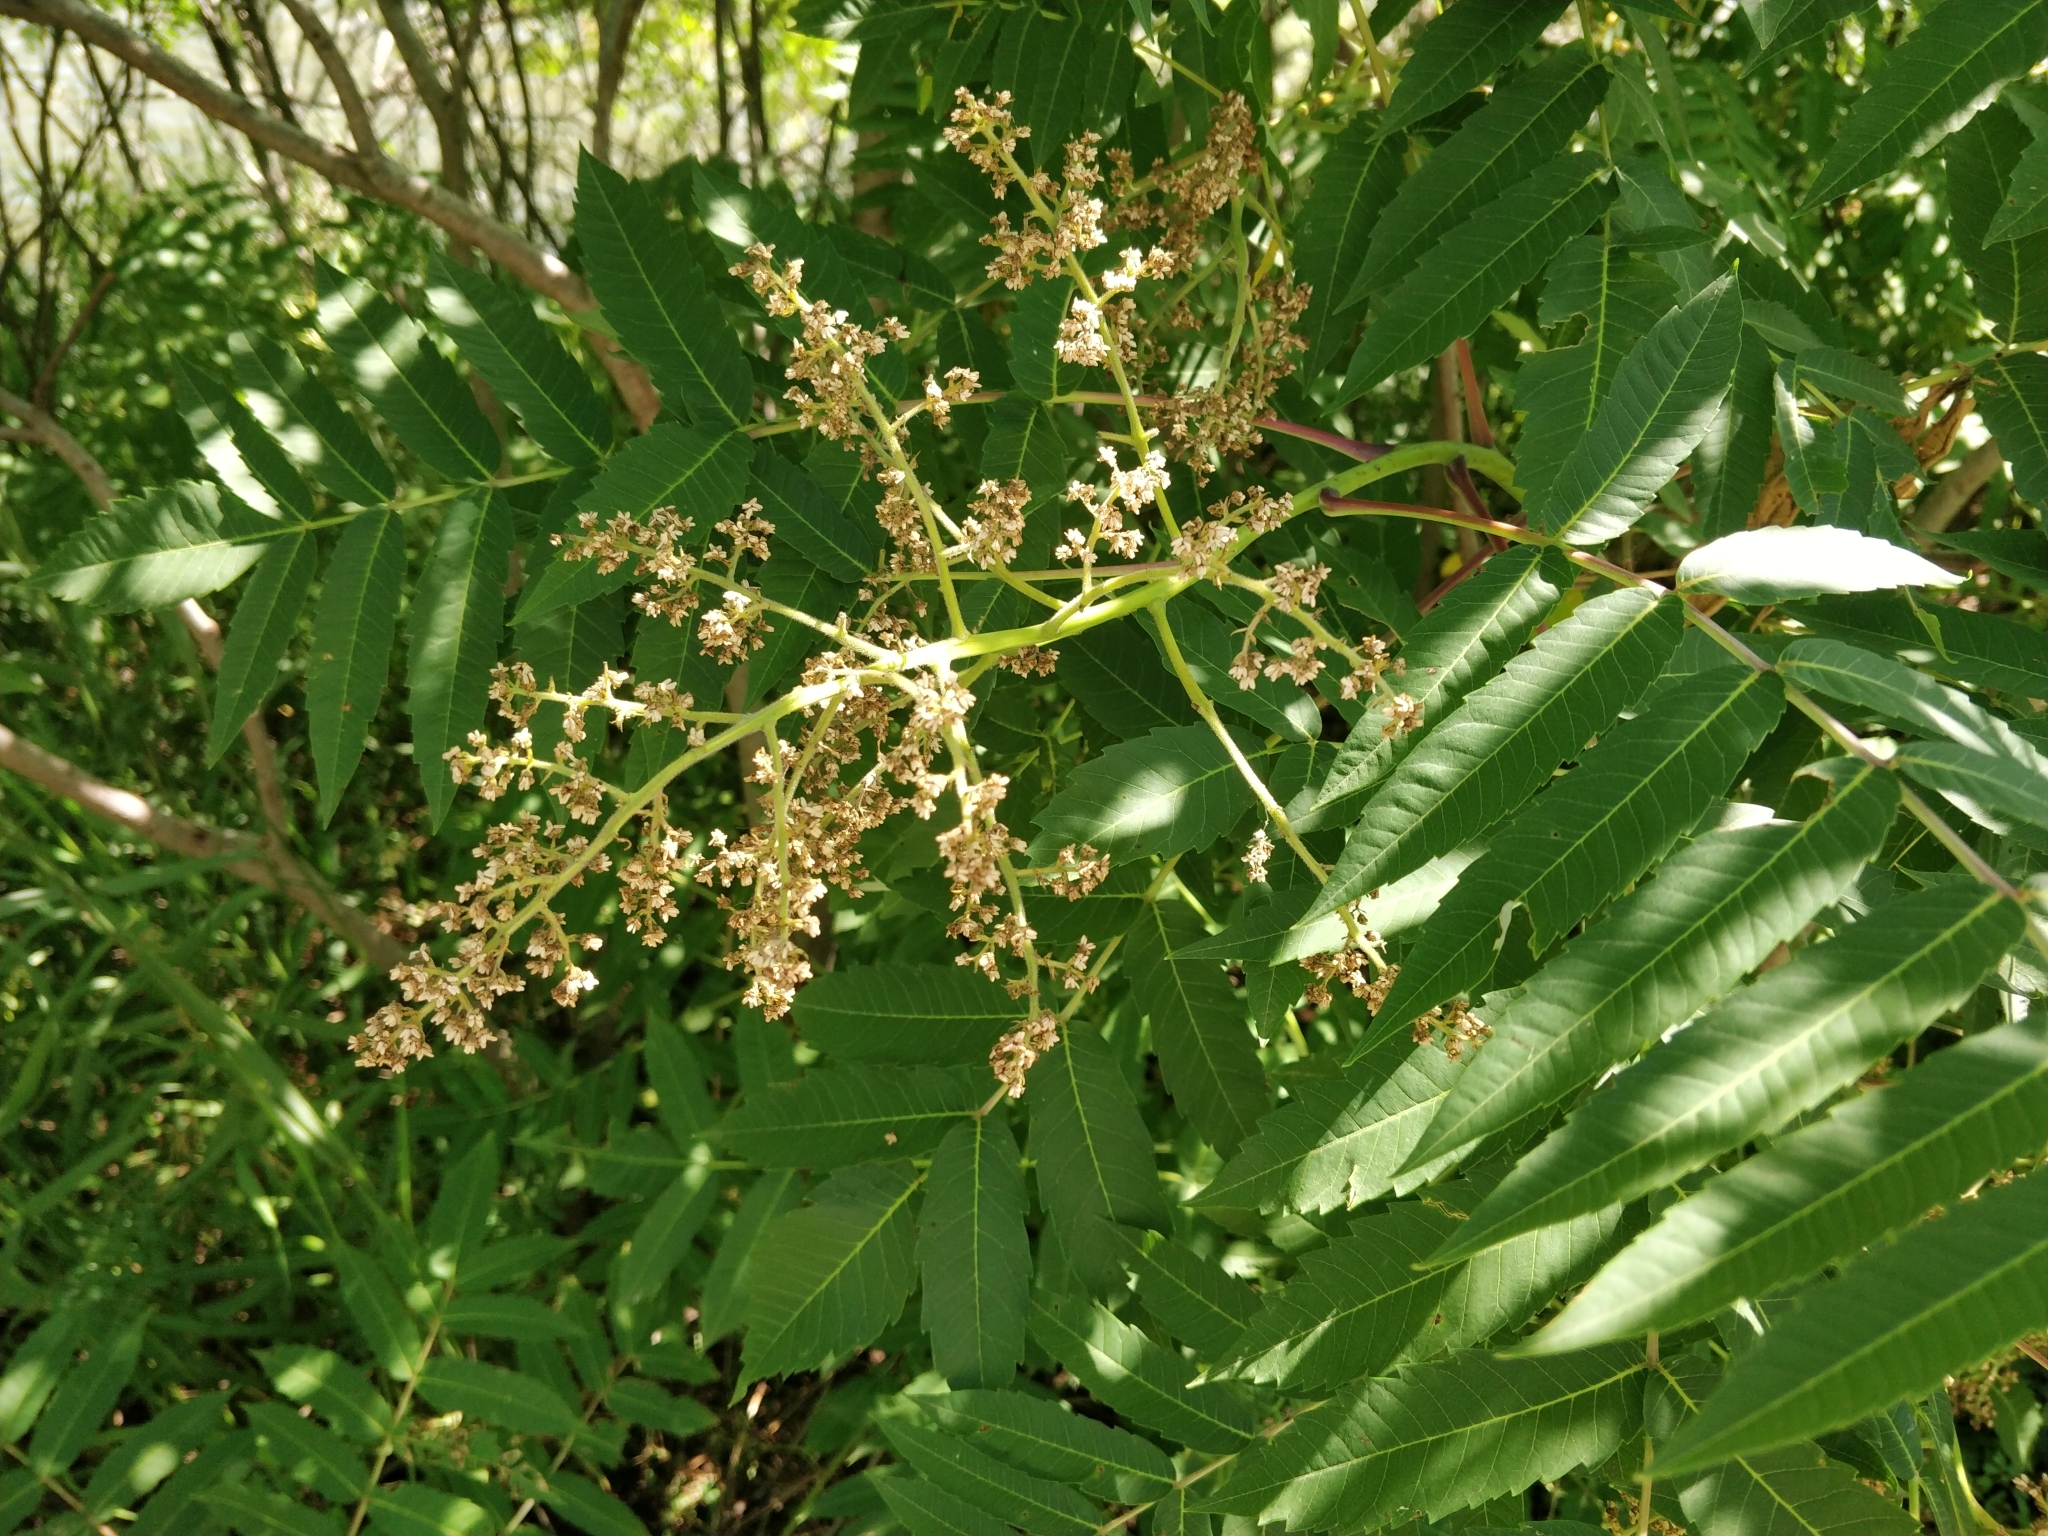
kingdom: Plantae
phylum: Tracheophyta
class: Magnoliopsida
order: Sapindales
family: Anacardiaceae
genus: Rhus
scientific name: Rhus glabra
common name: Scarlet sumac
